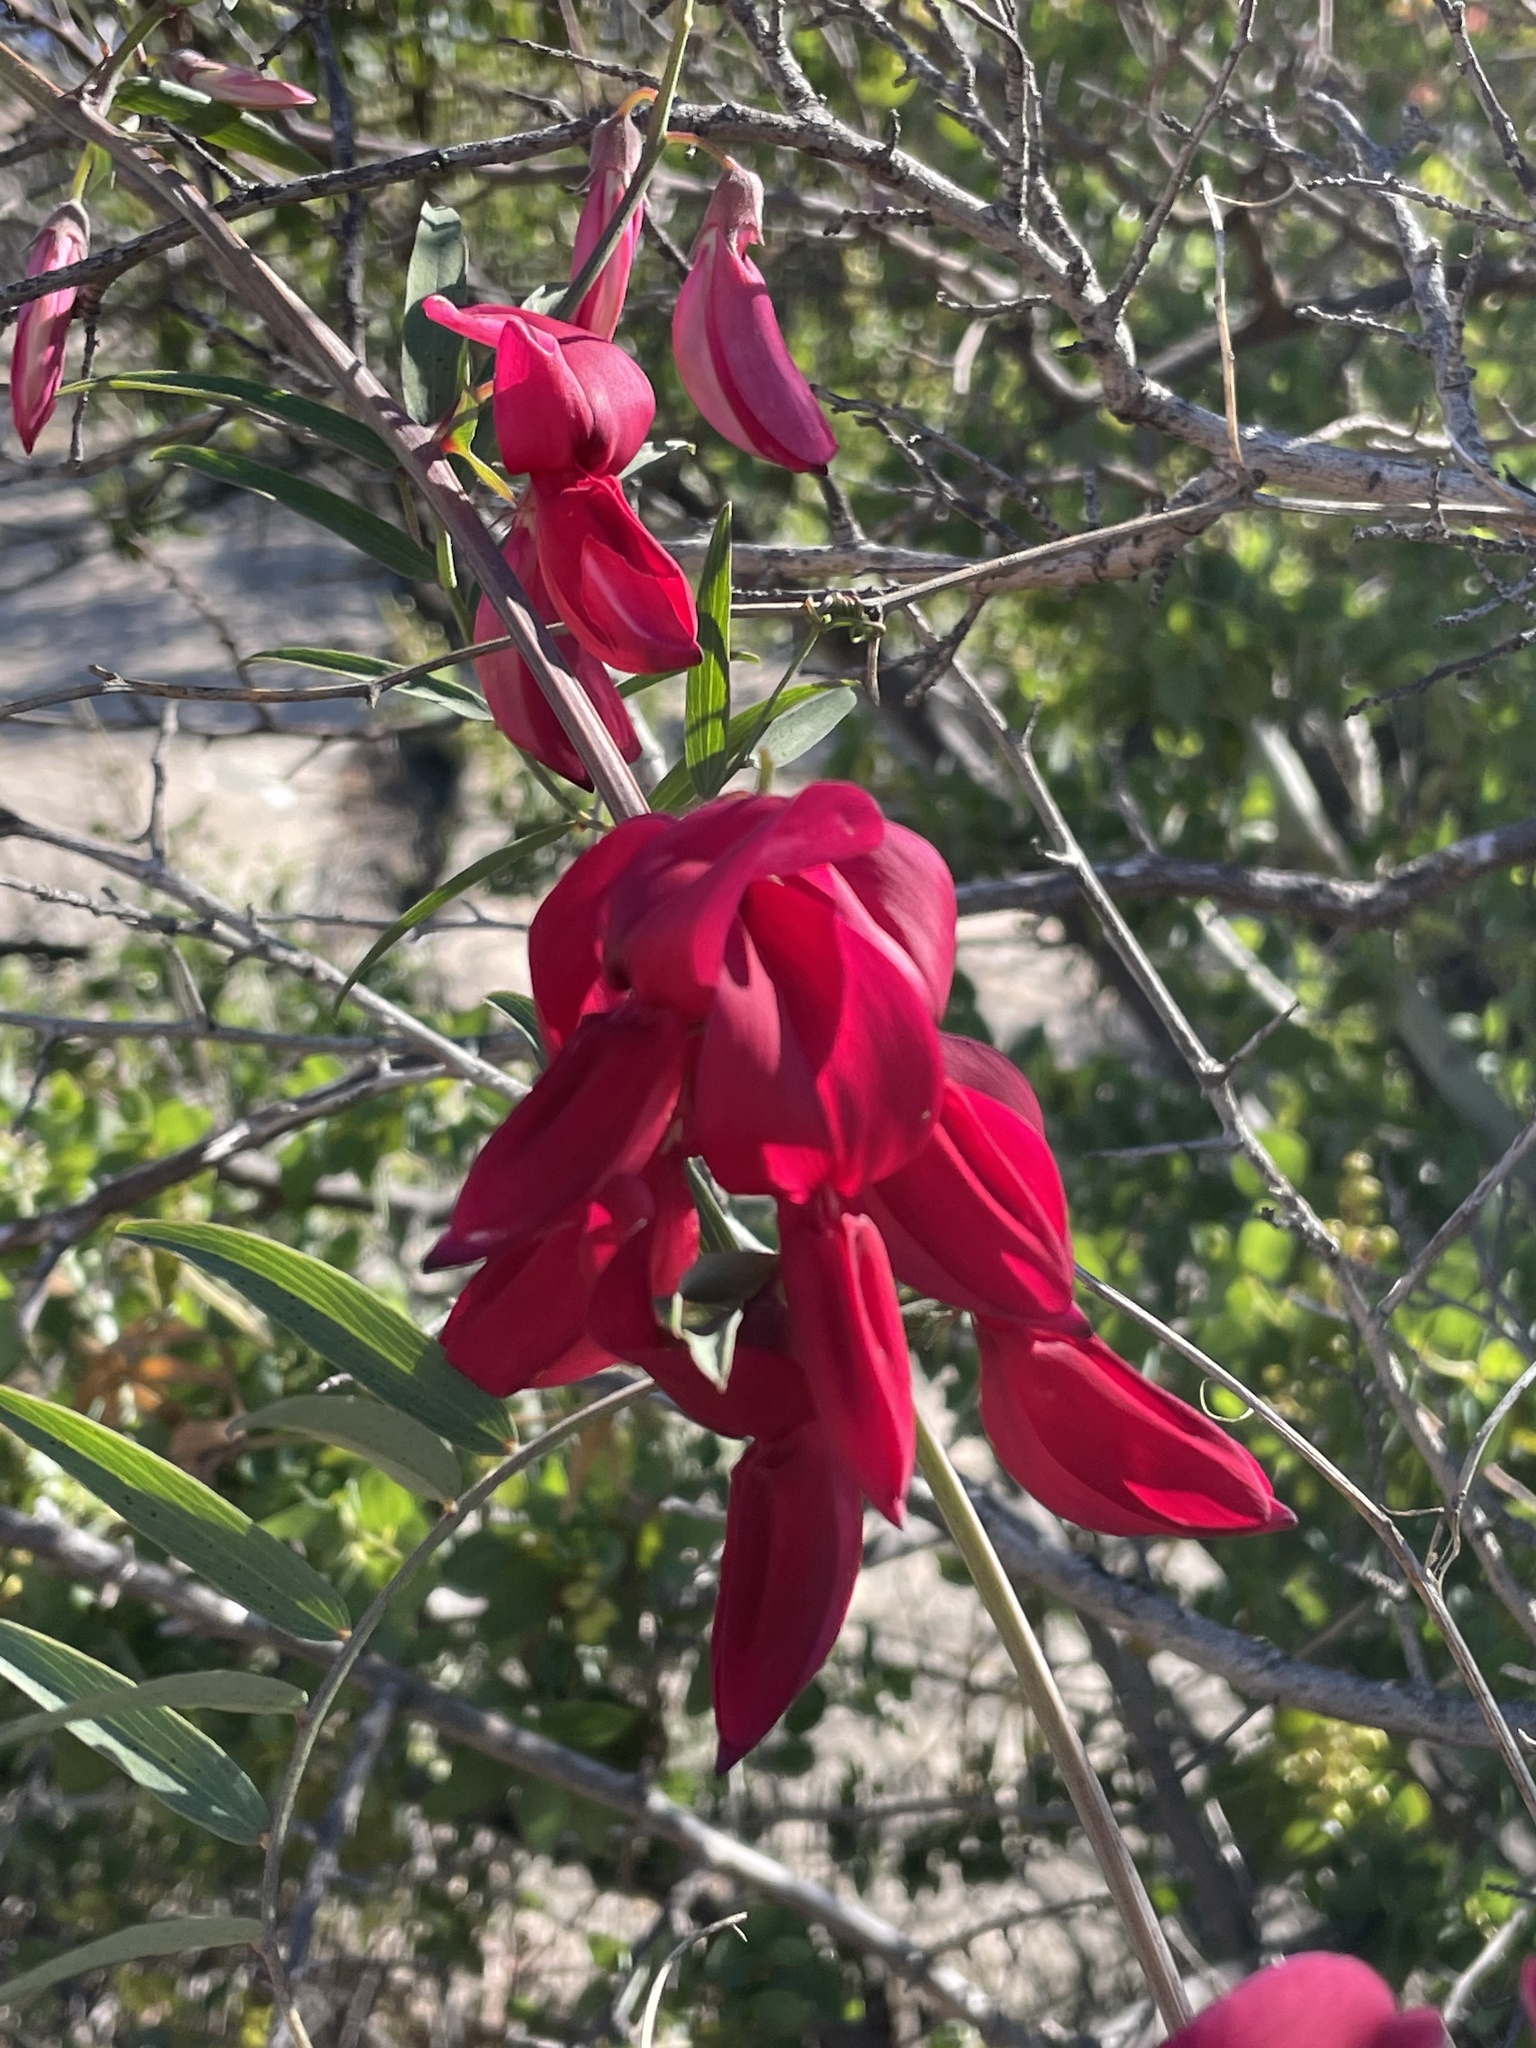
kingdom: Plantae
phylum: Tracheophyta
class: Magnoliopsida
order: Fabales
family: Fabaceae
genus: Lathyrus
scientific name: Lathyrus splendens
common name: Campo-pea
